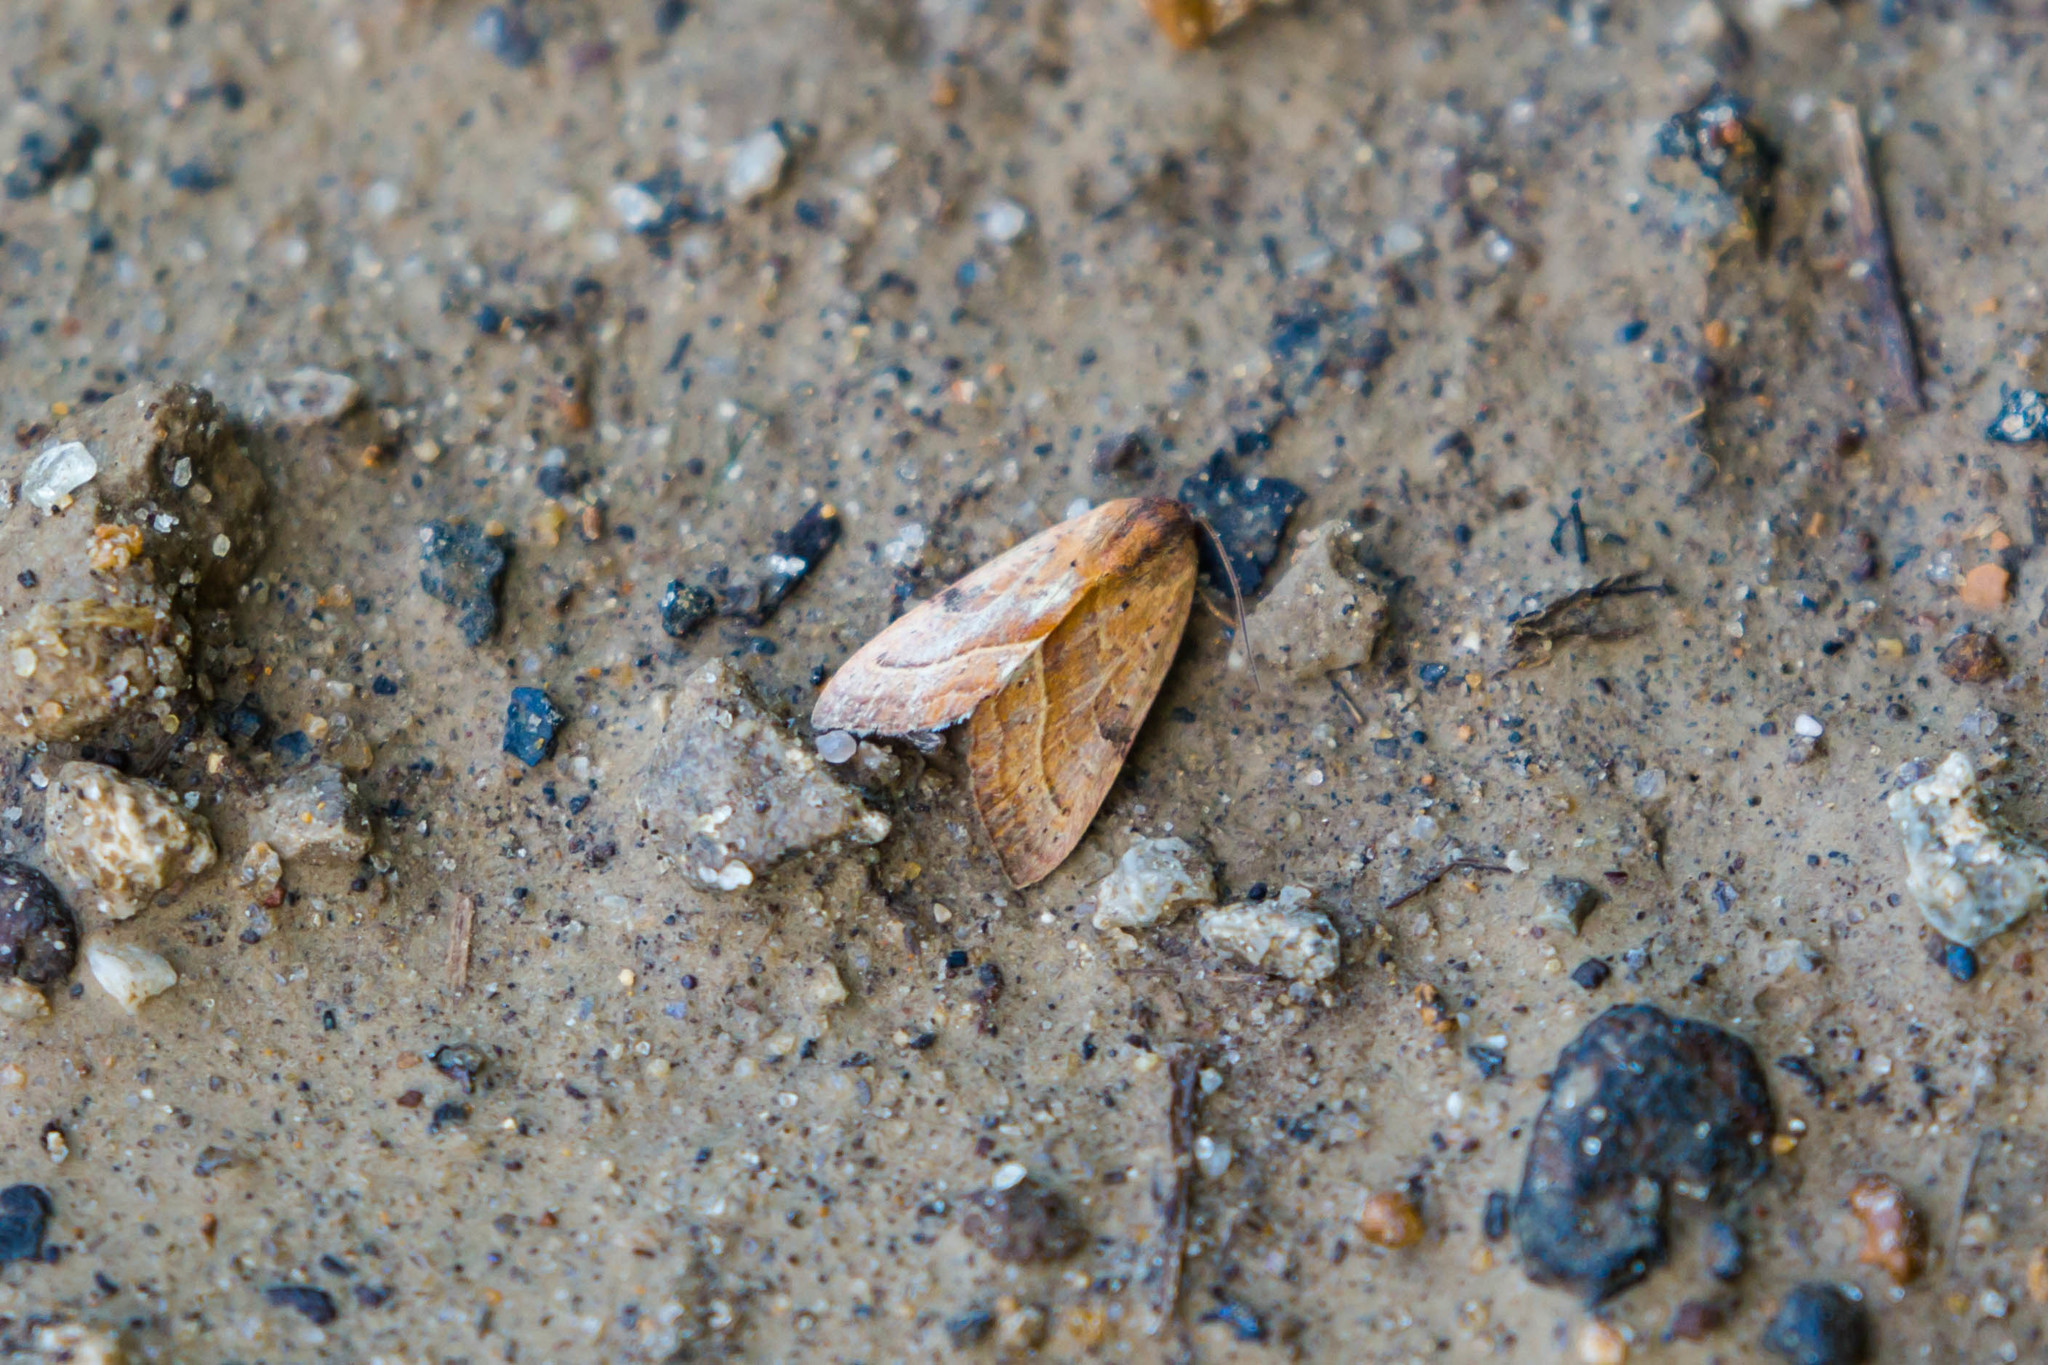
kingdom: Animalia
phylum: Arthropoda
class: Insecta
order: Lepidoptera
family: Noctuidae
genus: Galgula
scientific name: Galgula partita
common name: Wedgeling
